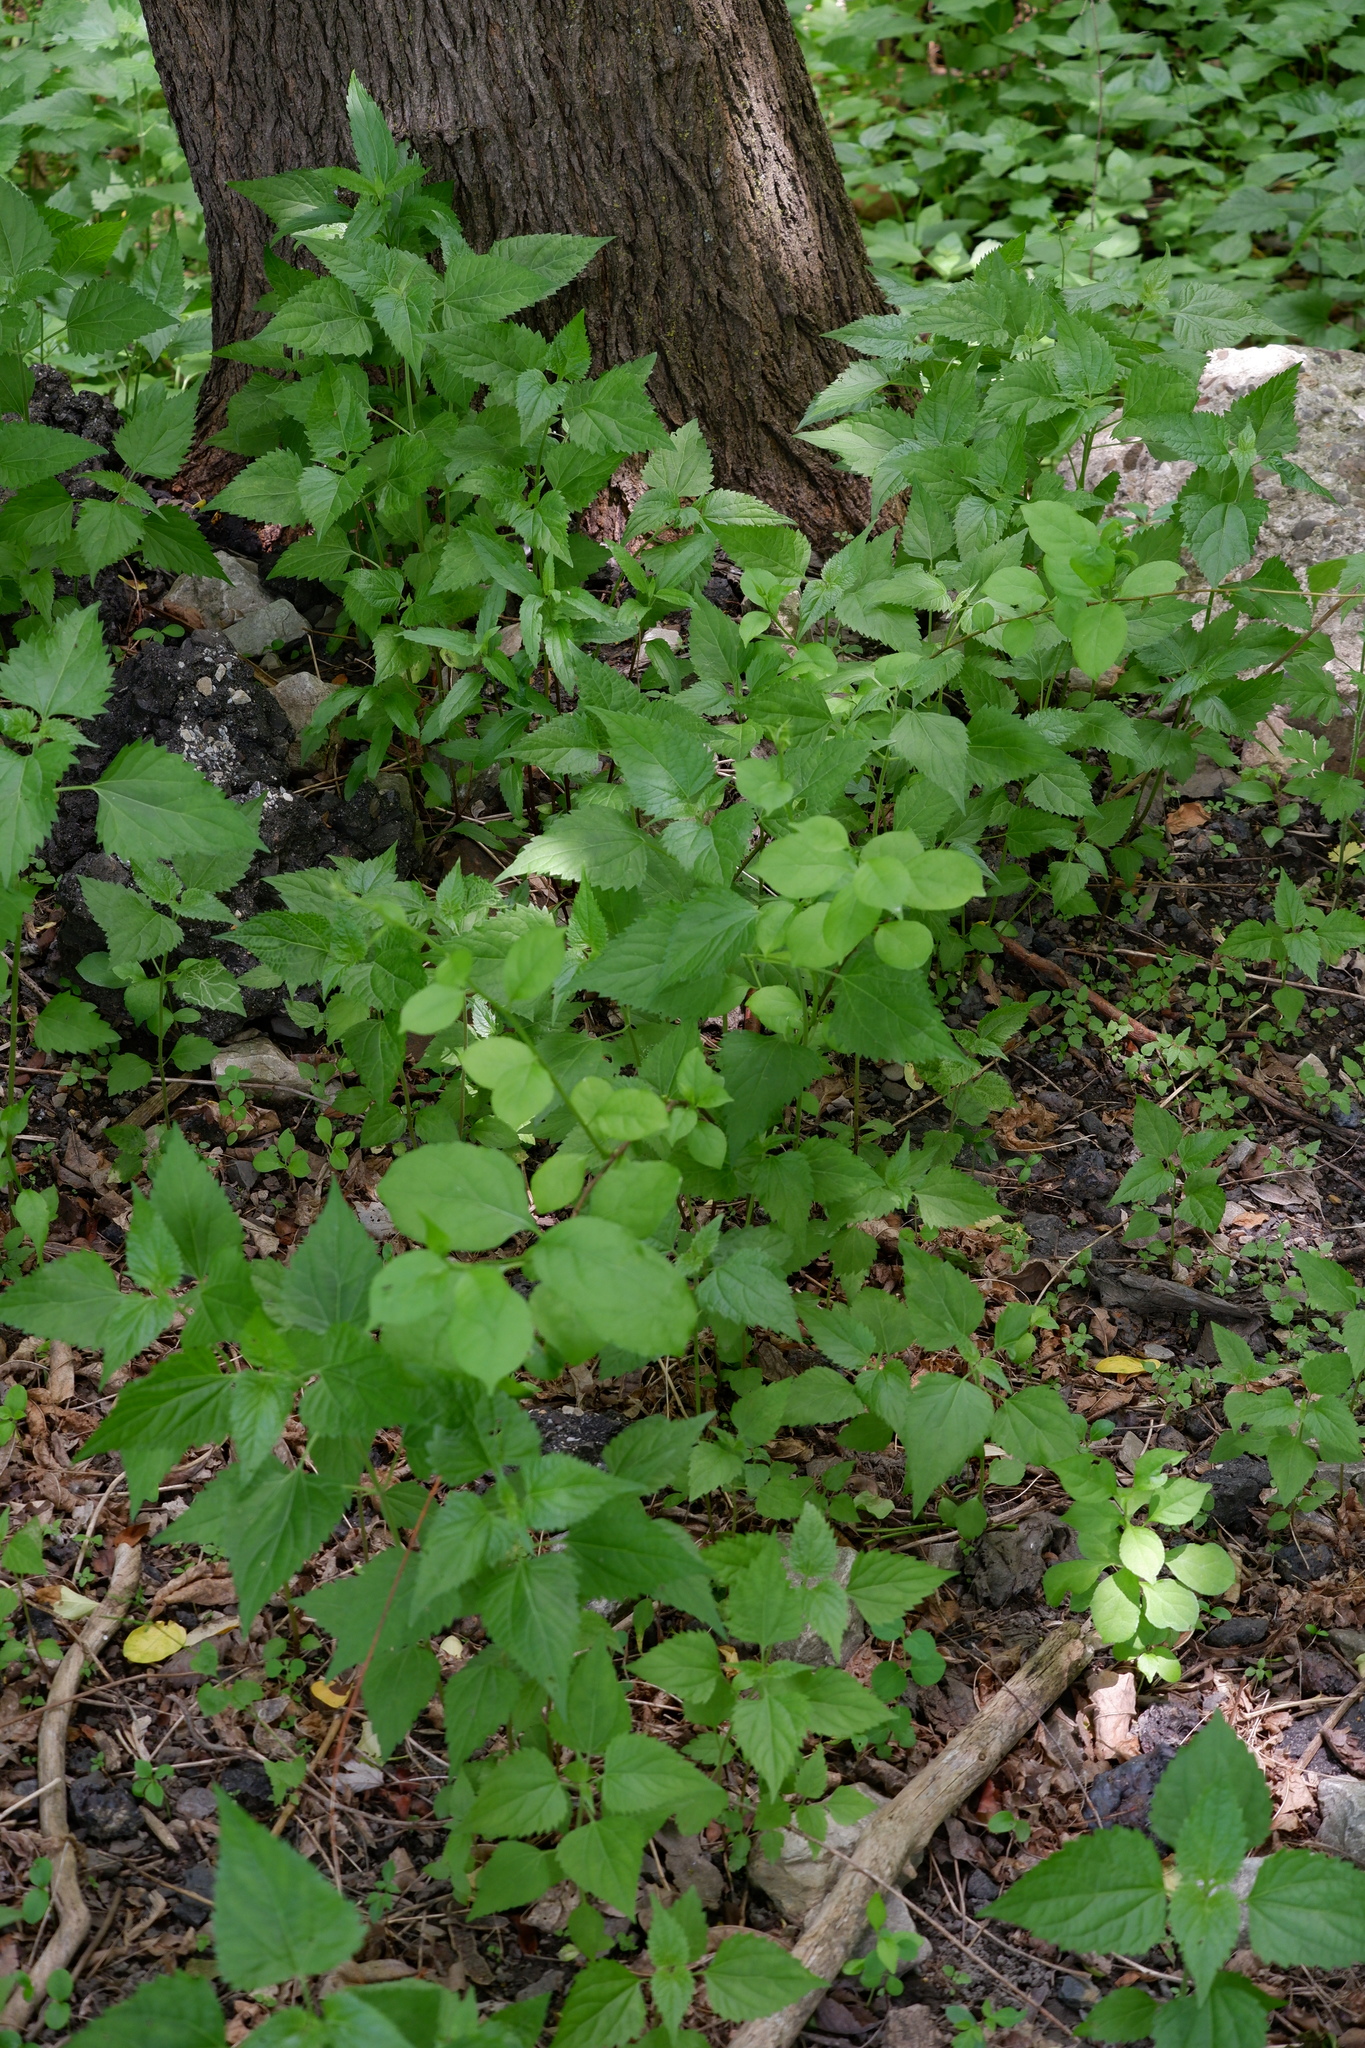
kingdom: Plantae
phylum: Tracheophyta
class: Magnoliopsida
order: Celastrales
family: Celastraceae
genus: Celastrus
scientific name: Celastrus orbiculatus
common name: Oriental bittersweet
